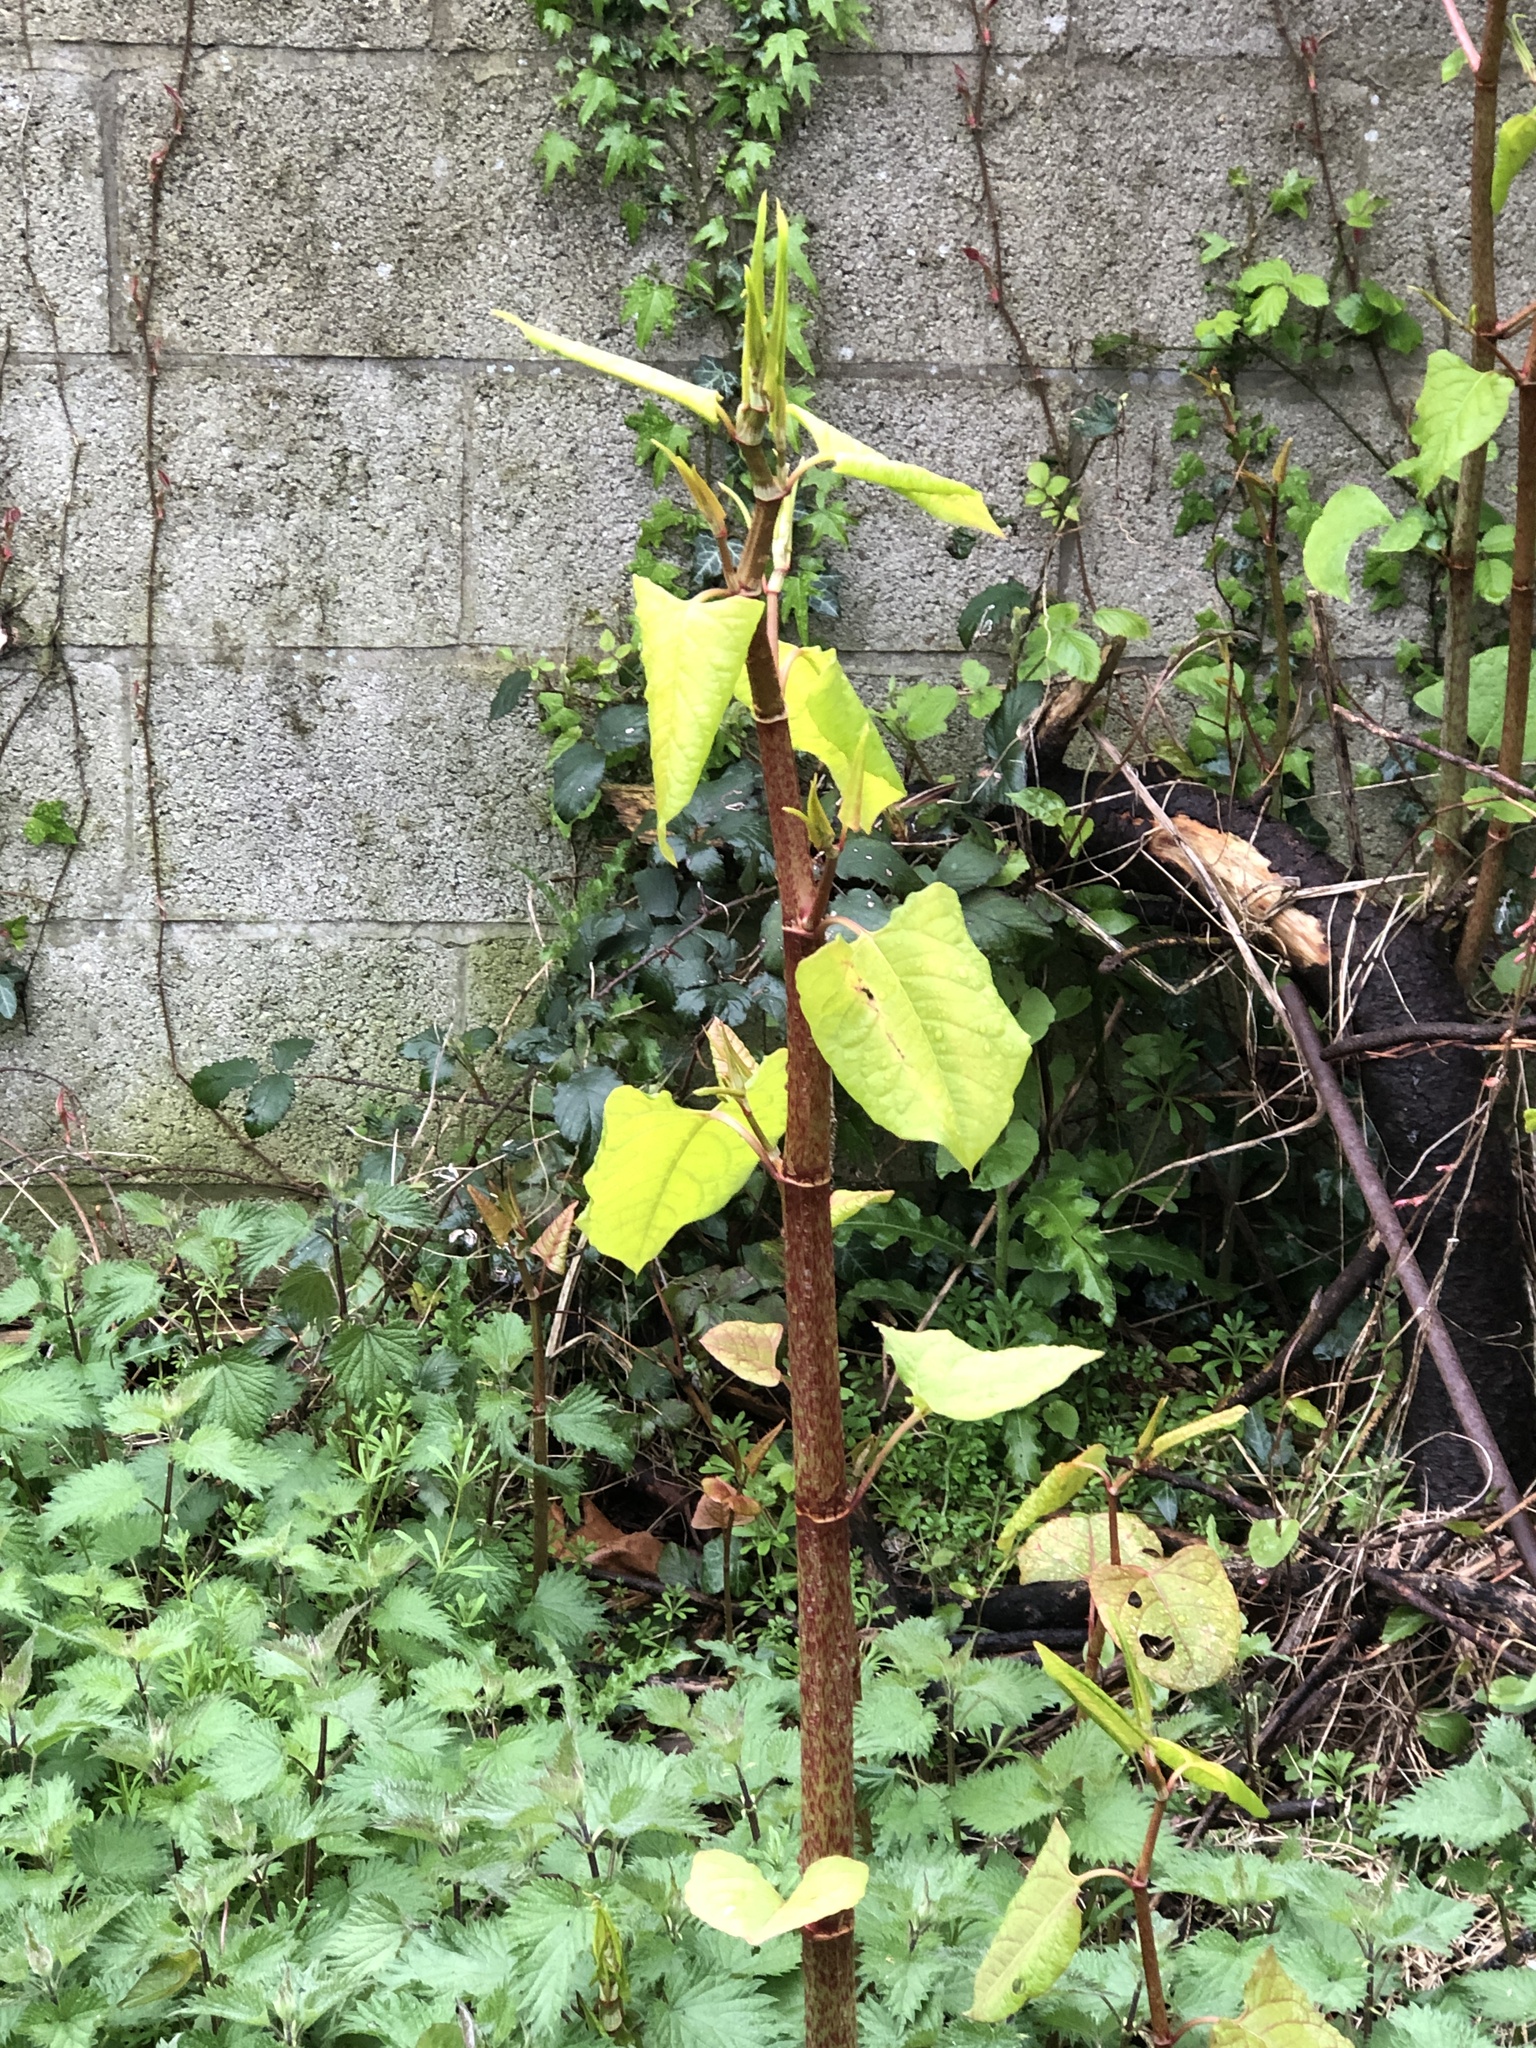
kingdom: Plantae
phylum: Tracheophyta
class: Magnoliopsida
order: Caryophyllales
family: Polygonaceae
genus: Reynoutria
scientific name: Reynoutria japonica
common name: Japanese knotweed
